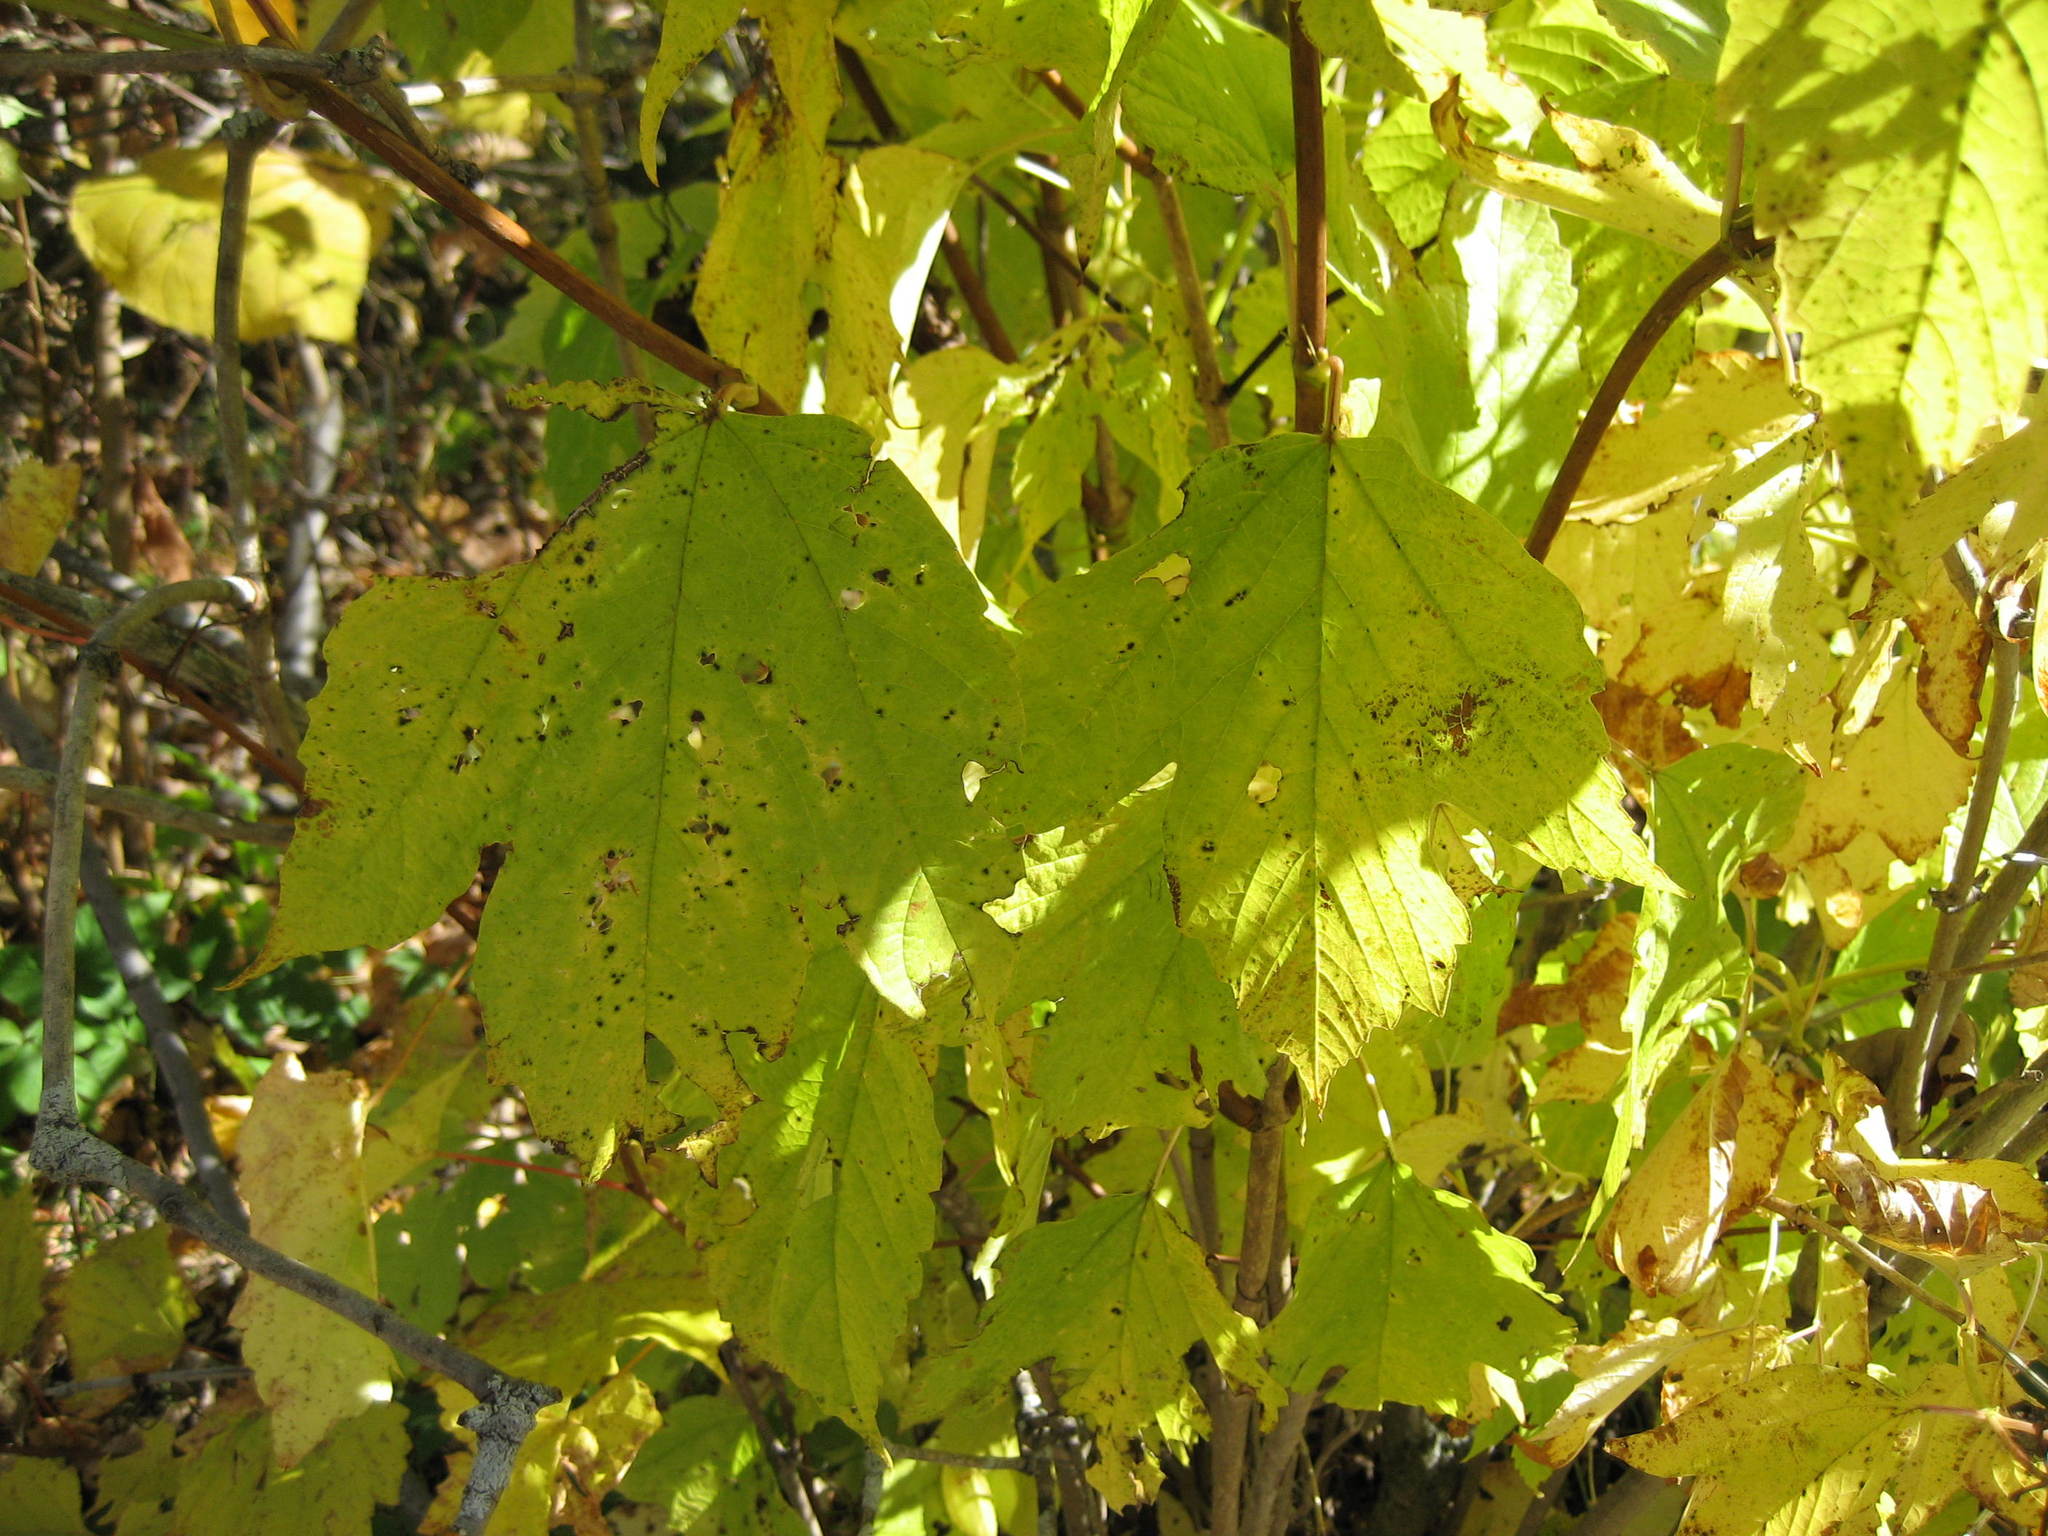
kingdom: Plantae
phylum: Tracheophyta
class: Magnoliopsida
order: Dipsacales
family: Viburnaceae
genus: Viburnum
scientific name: Viburnum opulus
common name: Guelder-rose
